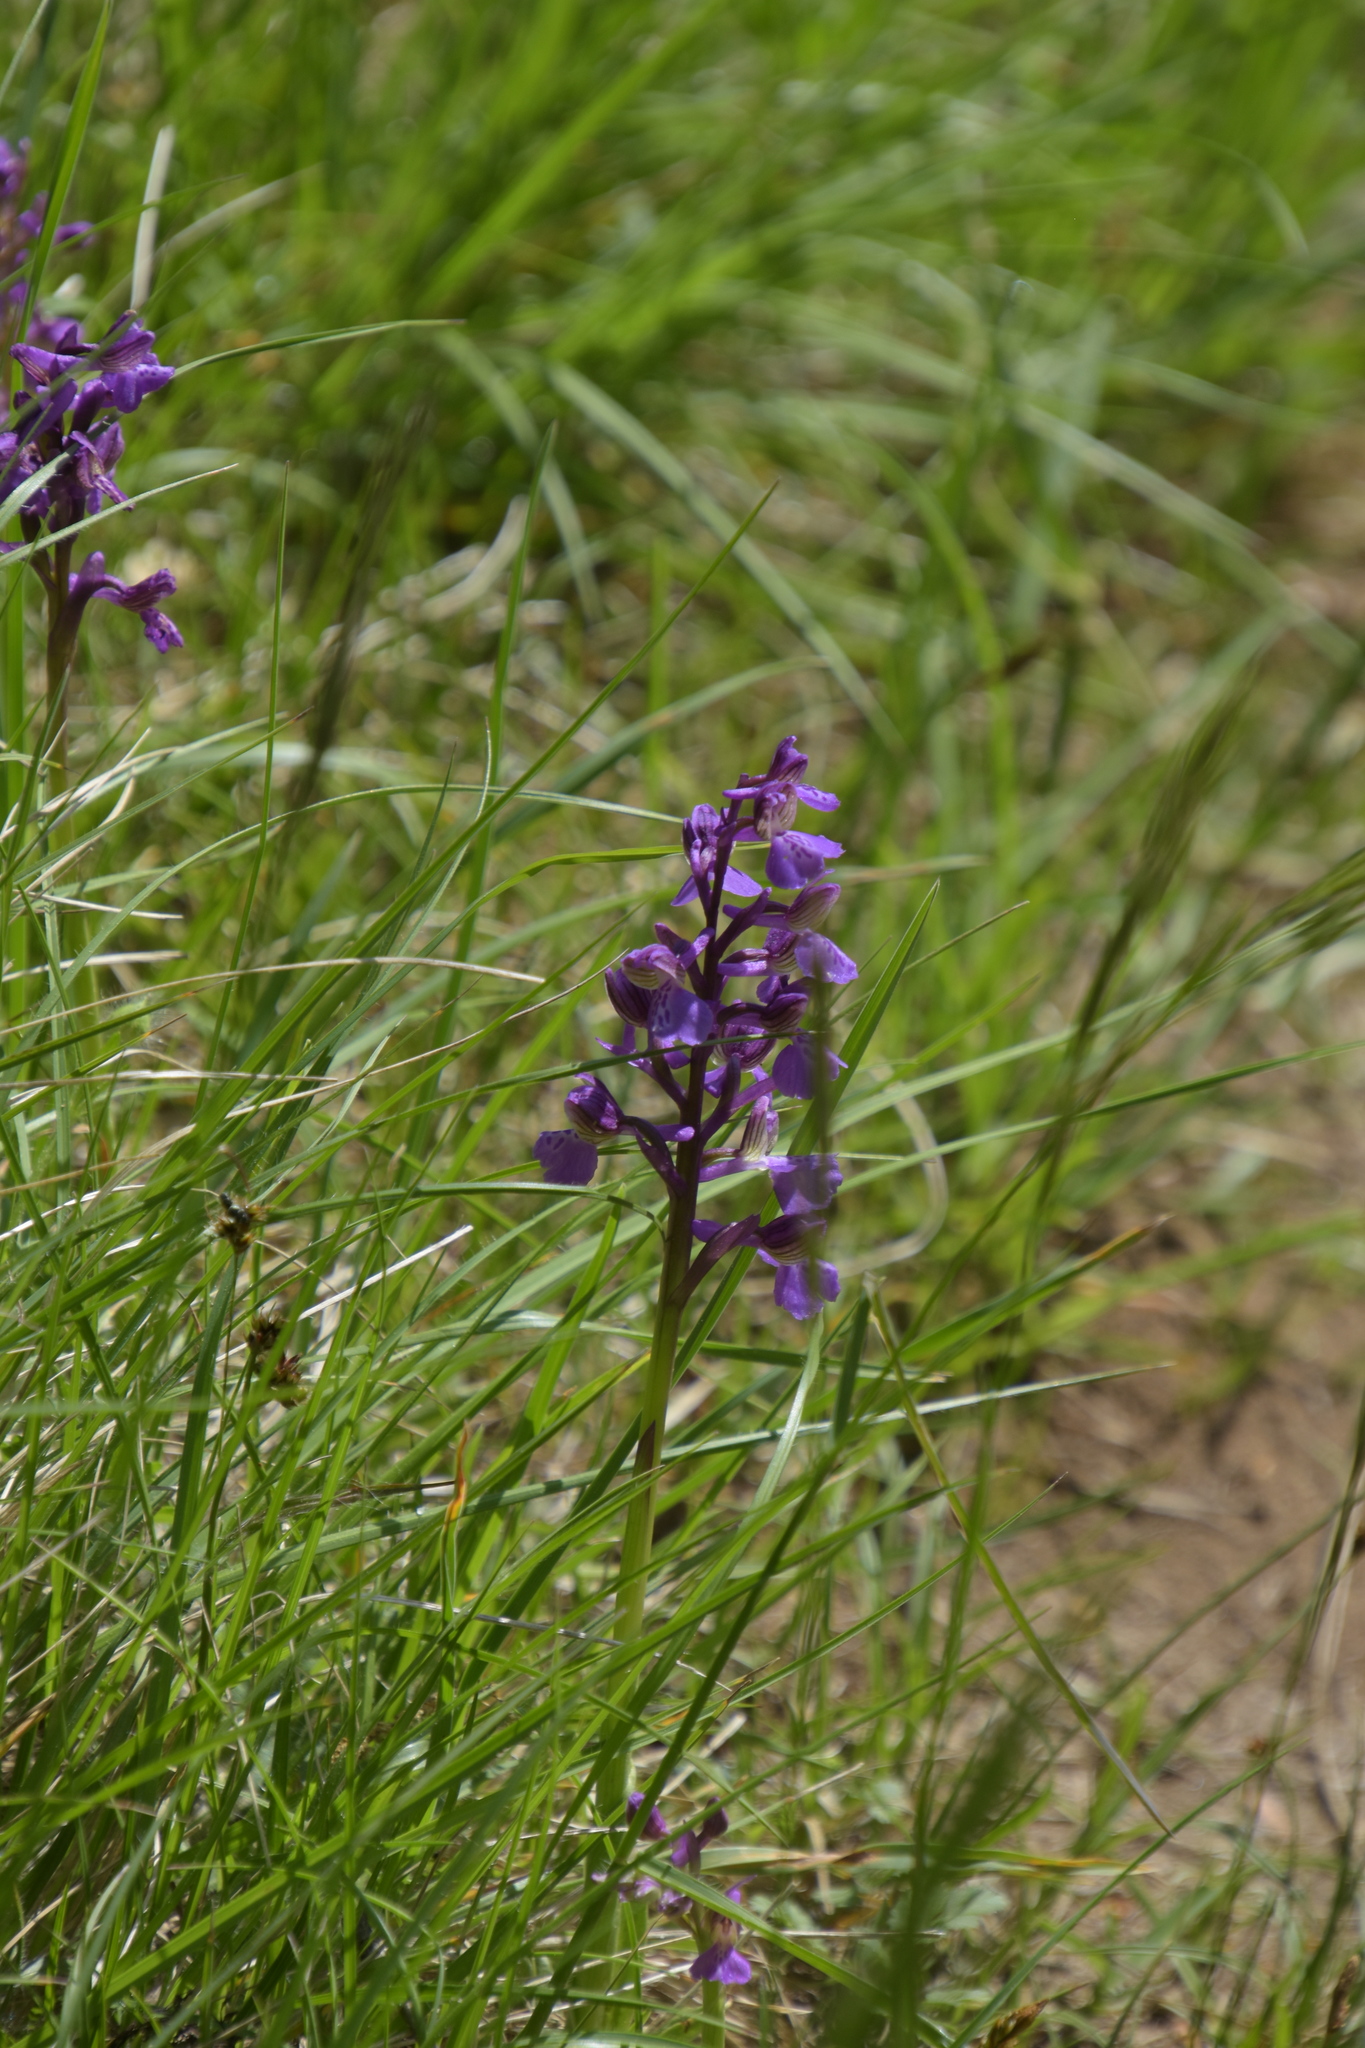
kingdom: Plantae
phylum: Tracheophyta
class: Liliopsida
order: Asparagales
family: Orchidaceae
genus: Anacamptis
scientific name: Anacamptis morio
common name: Green-winged orchid
